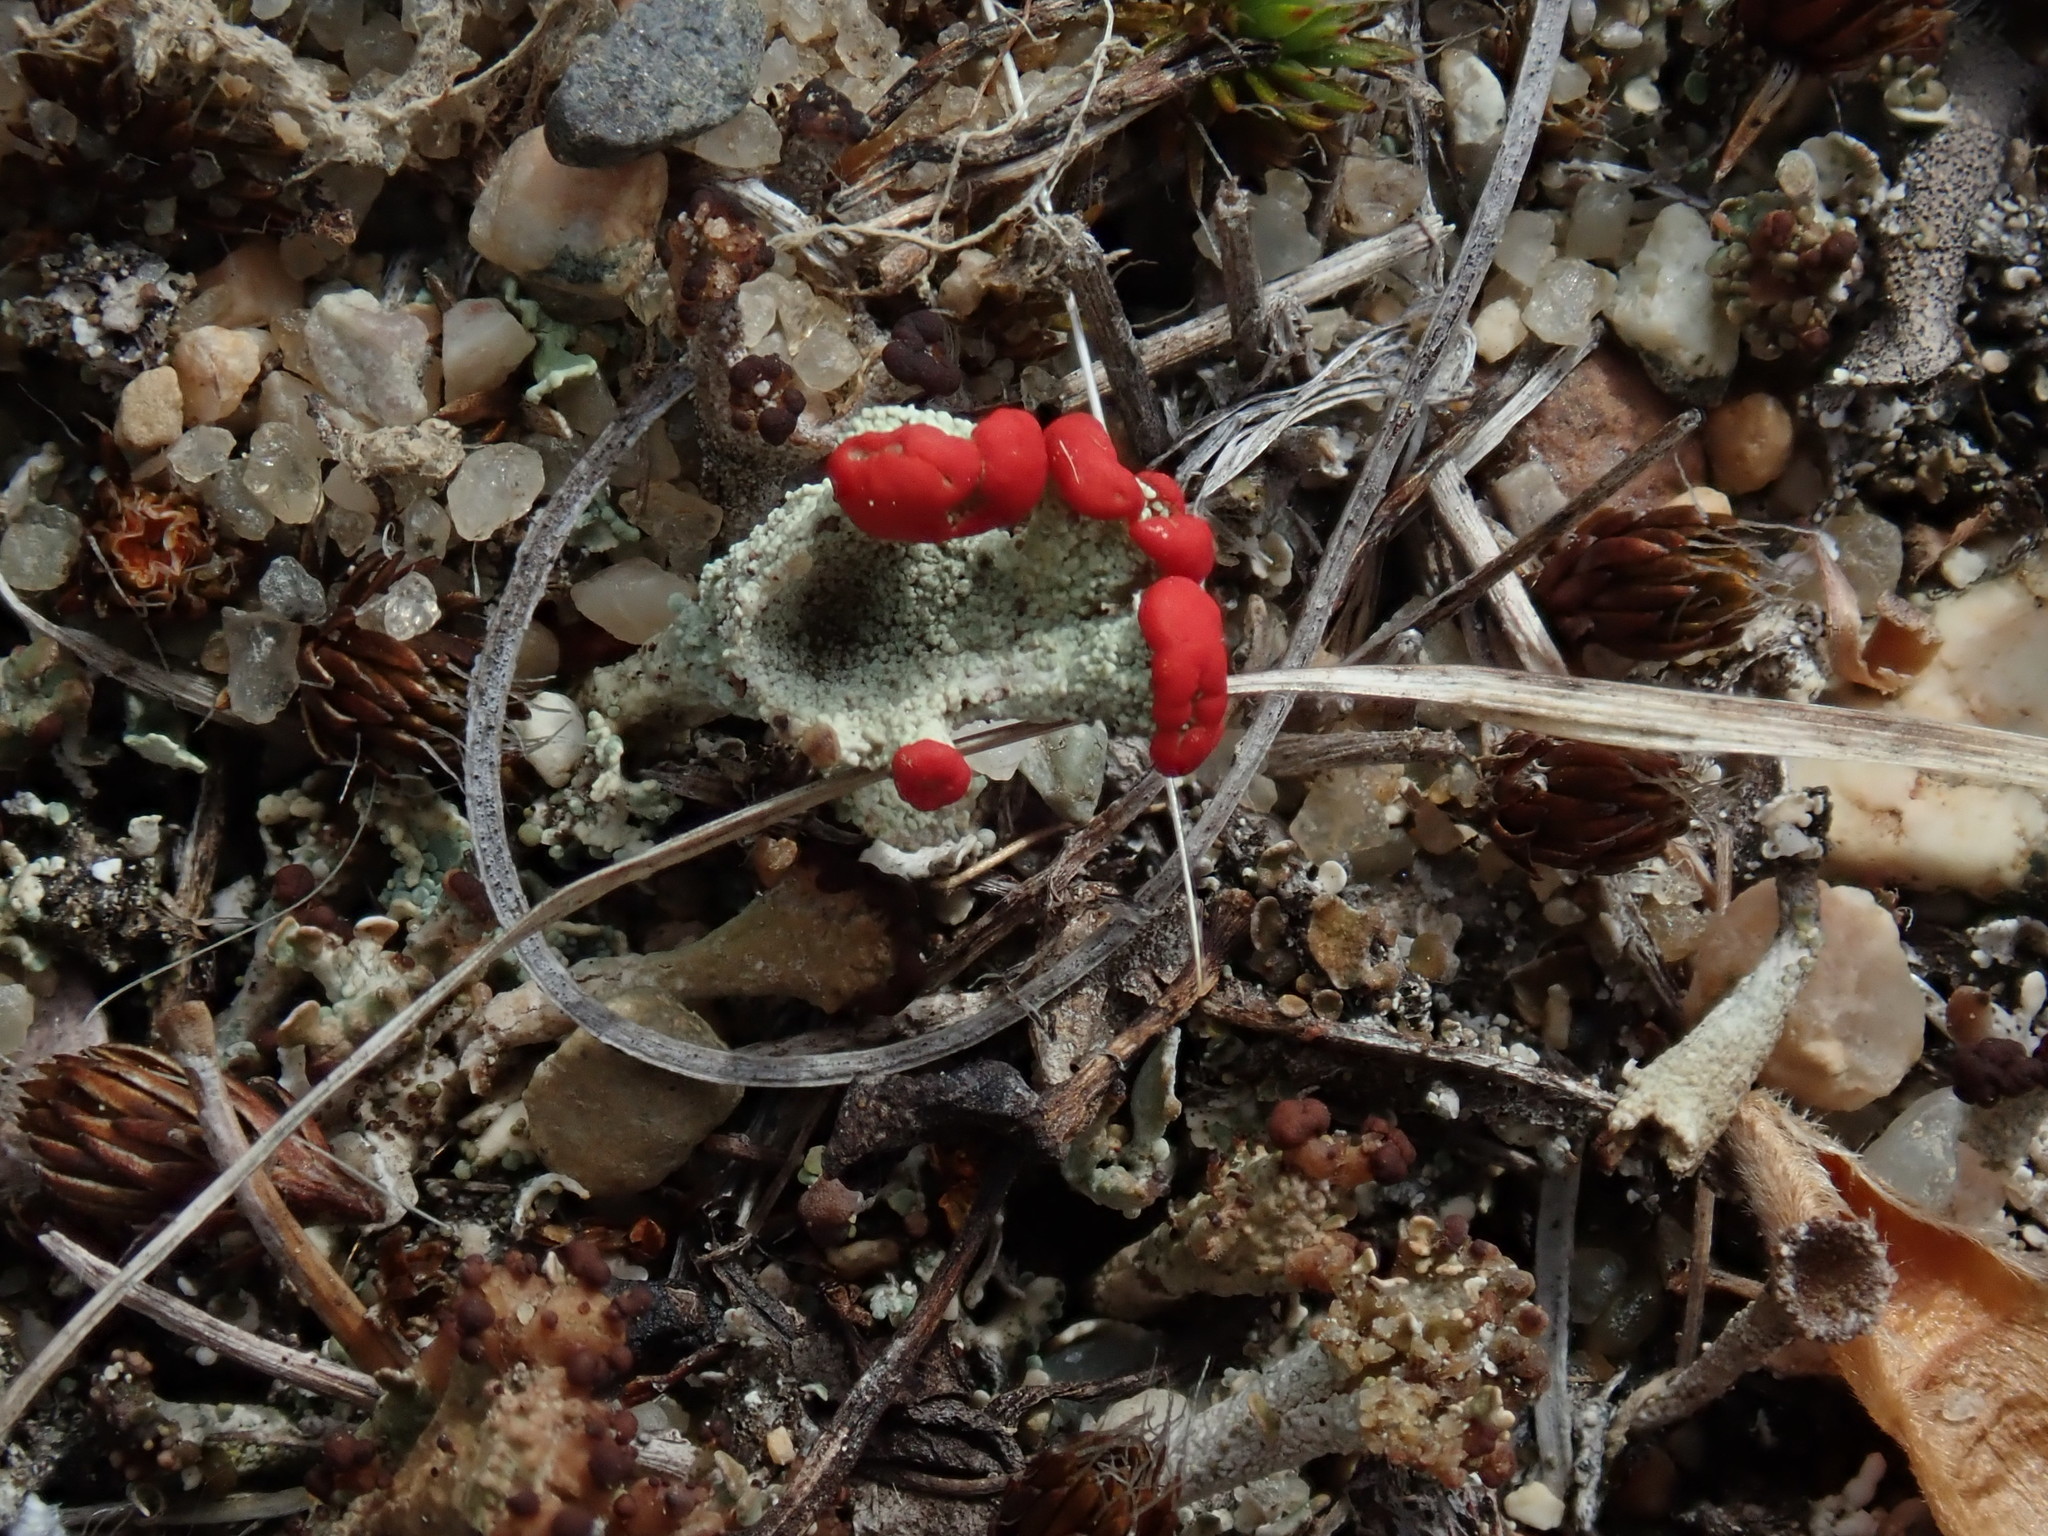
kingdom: Fungi
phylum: Ascomycota
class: Lecanoromycetes
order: Lecanorales
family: Cladoniaceae
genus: Cladonia
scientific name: Cladonia pleurota
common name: Red-fruited pixie cup
